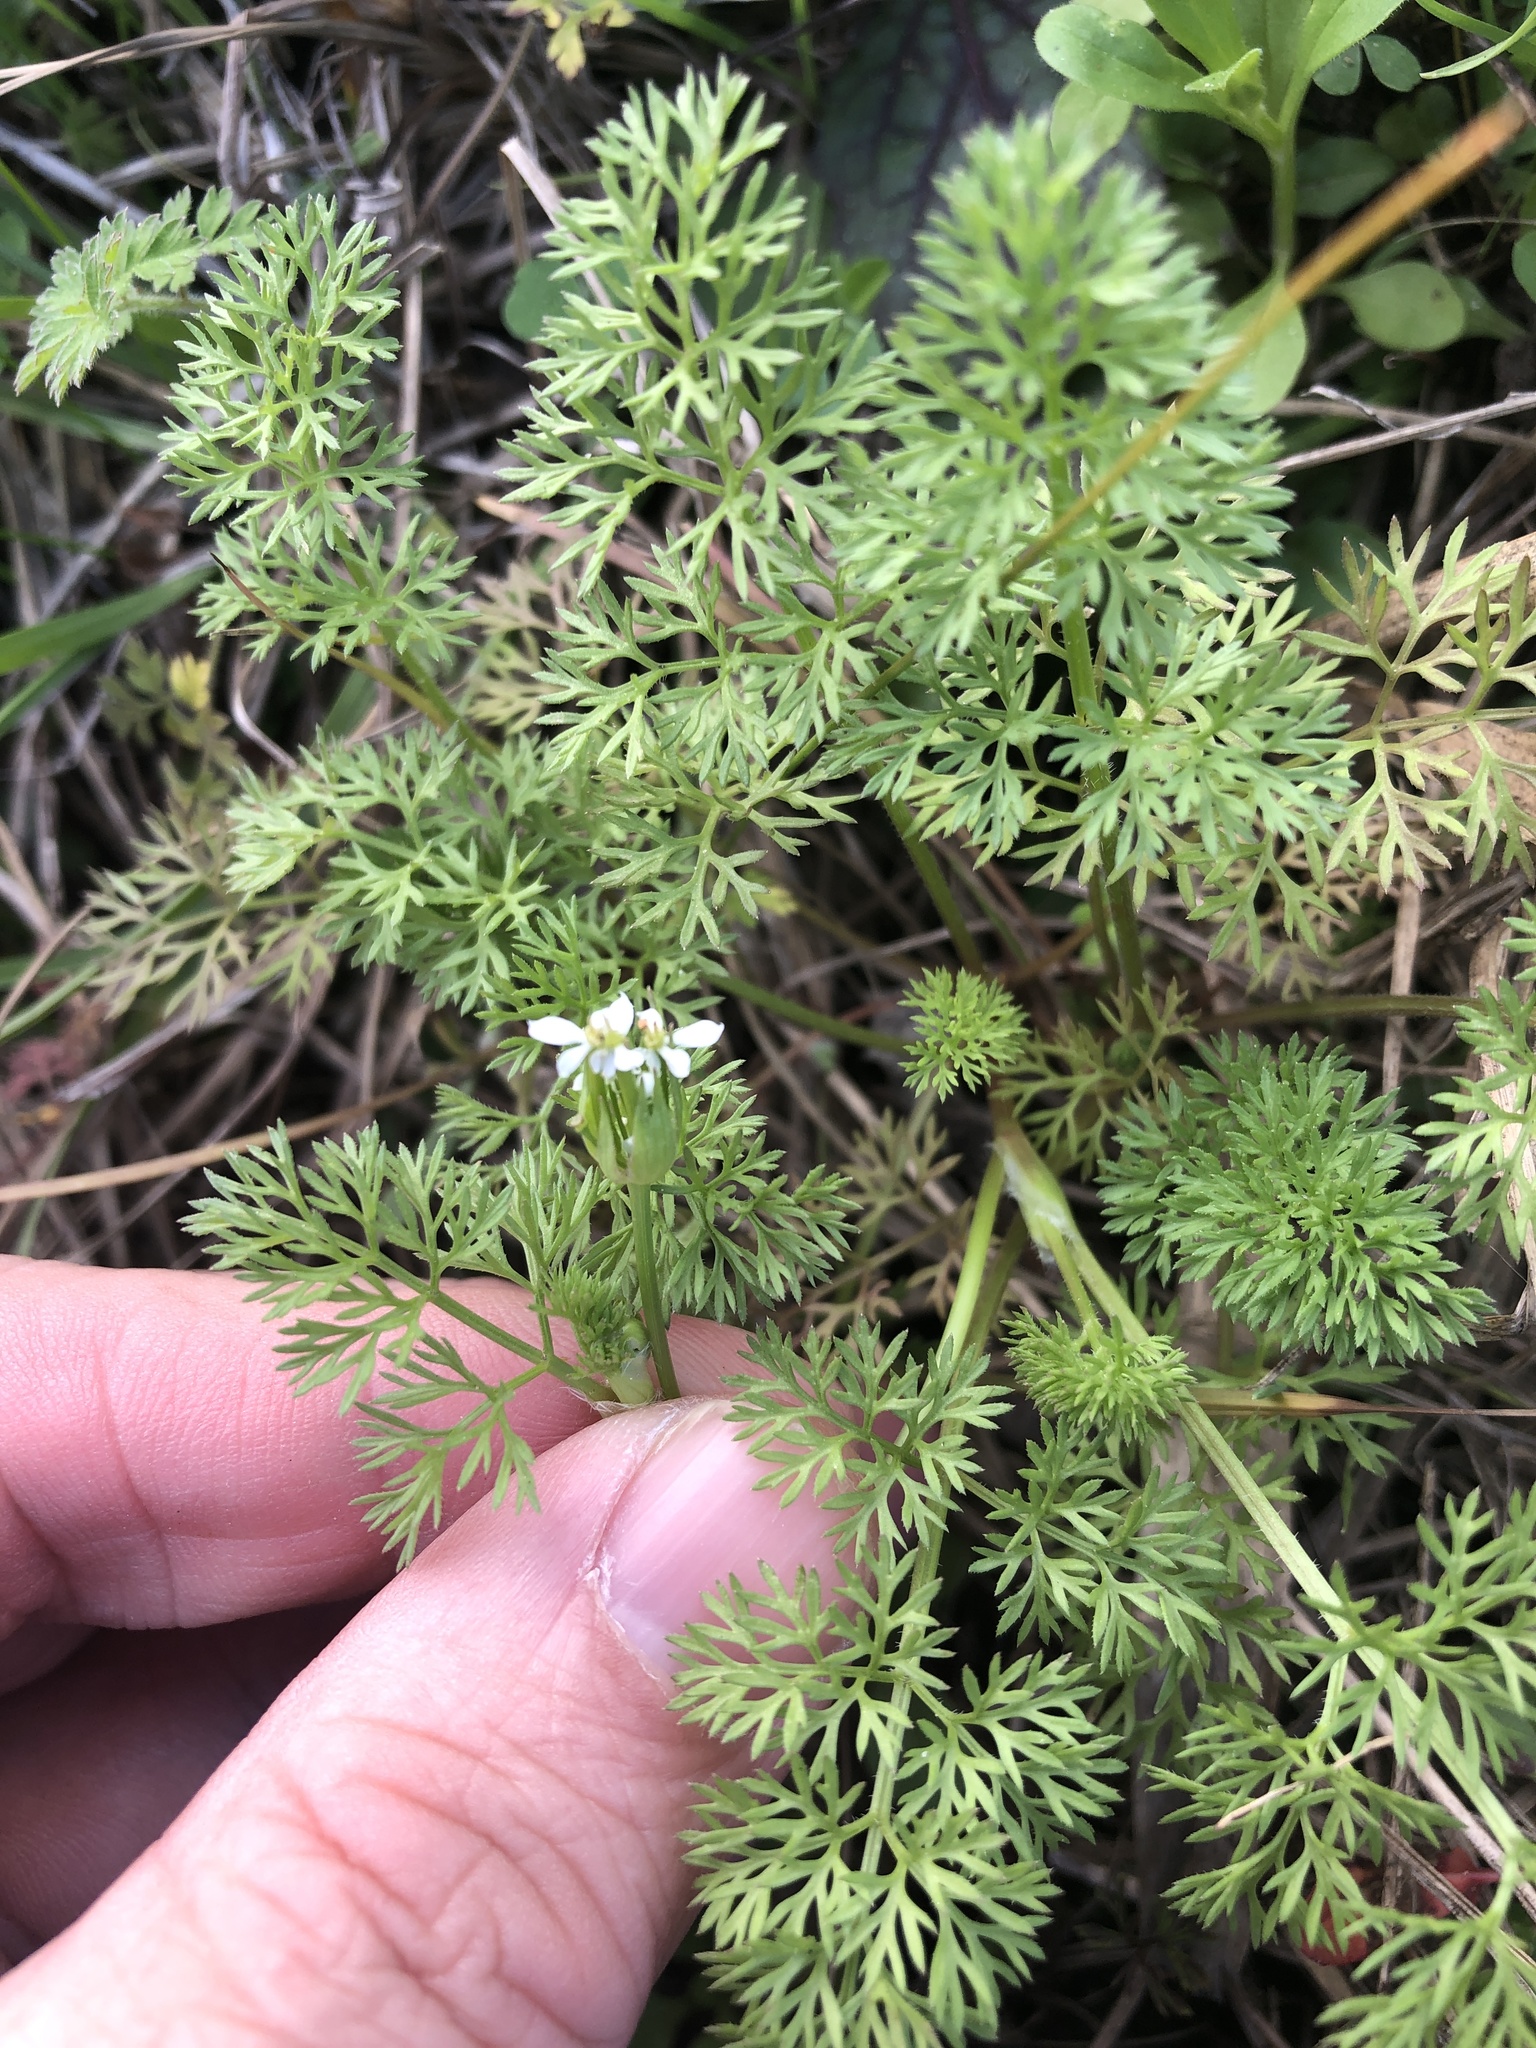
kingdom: Plantae
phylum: Tracheophyta
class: Magnoliopsida
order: Apiales
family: Apiaceae
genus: Scandix
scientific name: Scandix pecten-veneris
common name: Shepherd's-needle
